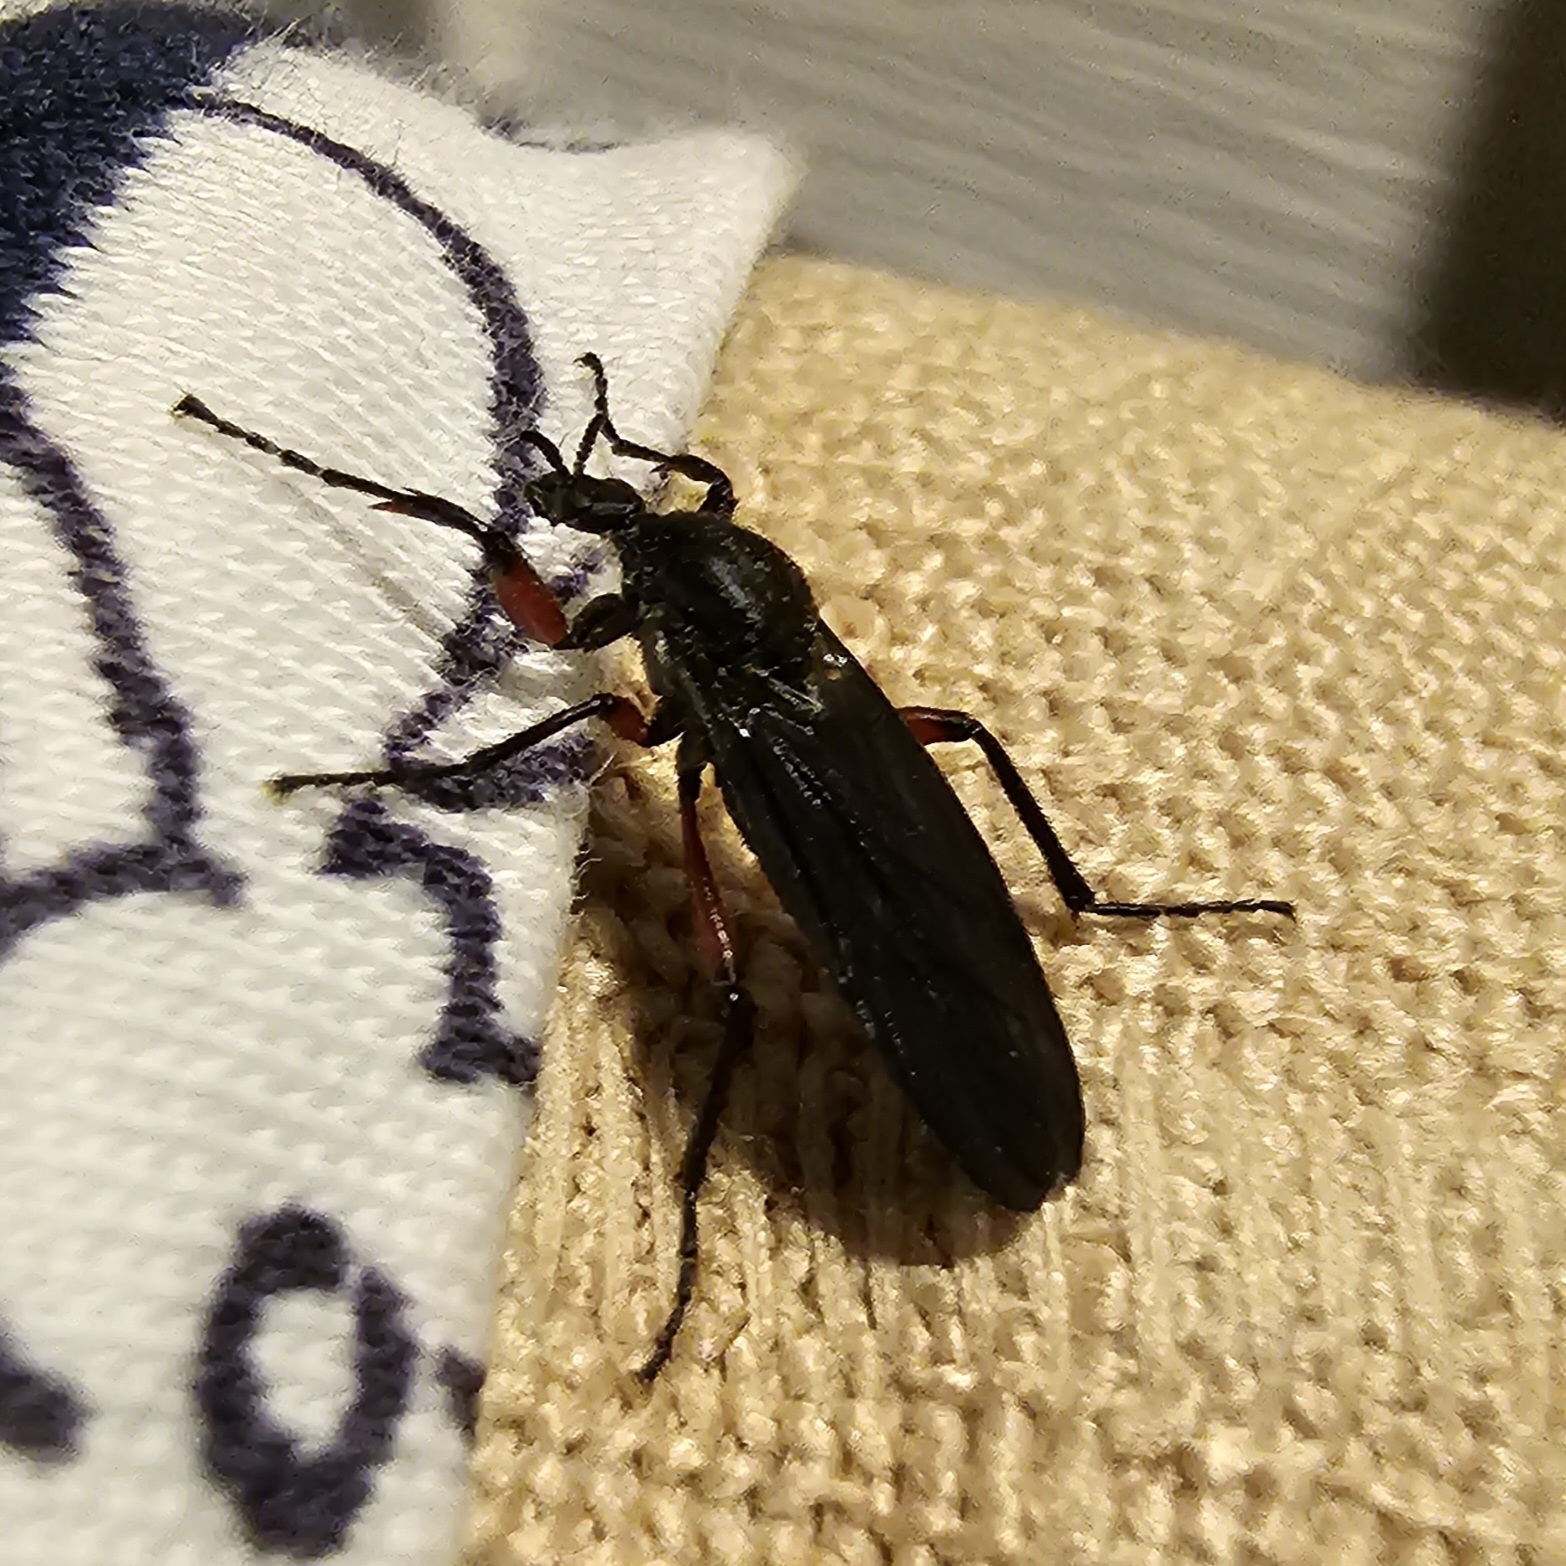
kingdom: Animalia
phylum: Arthropoda
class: Insecta
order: Diptera
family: Bibionidae
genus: Bibio
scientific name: Bibio femoratus
